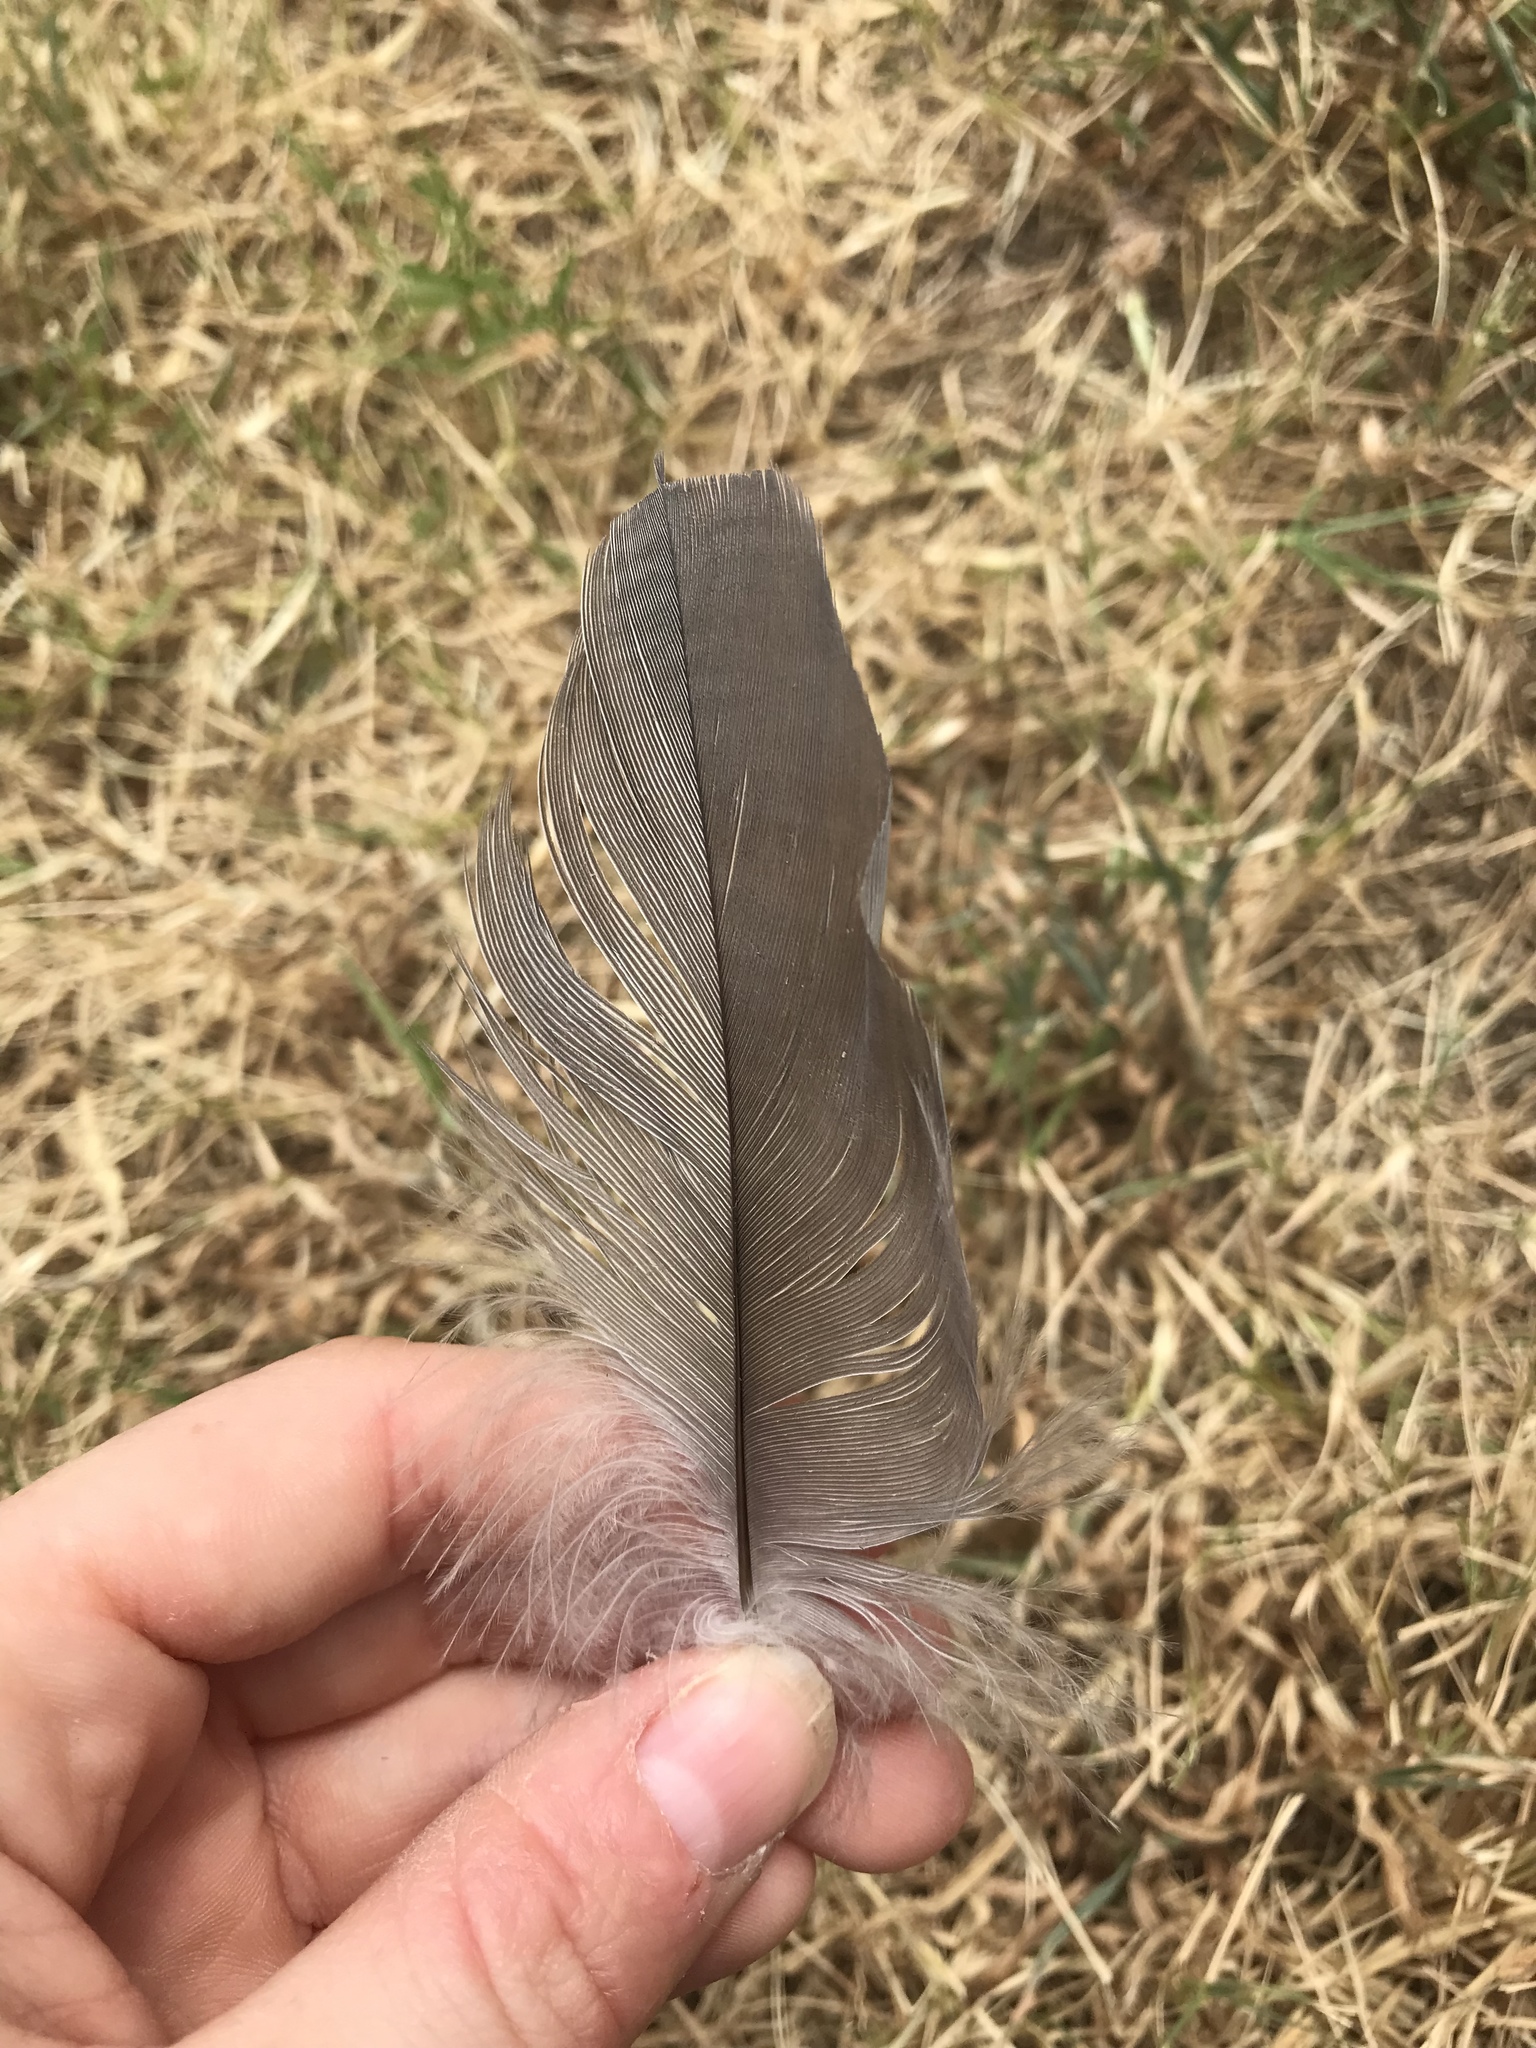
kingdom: Animalia
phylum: Chordata
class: Aves
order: Pelecaniformes
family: Ardeidae
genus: Ardea
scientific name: Ardea herodias
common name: Great blue heron
